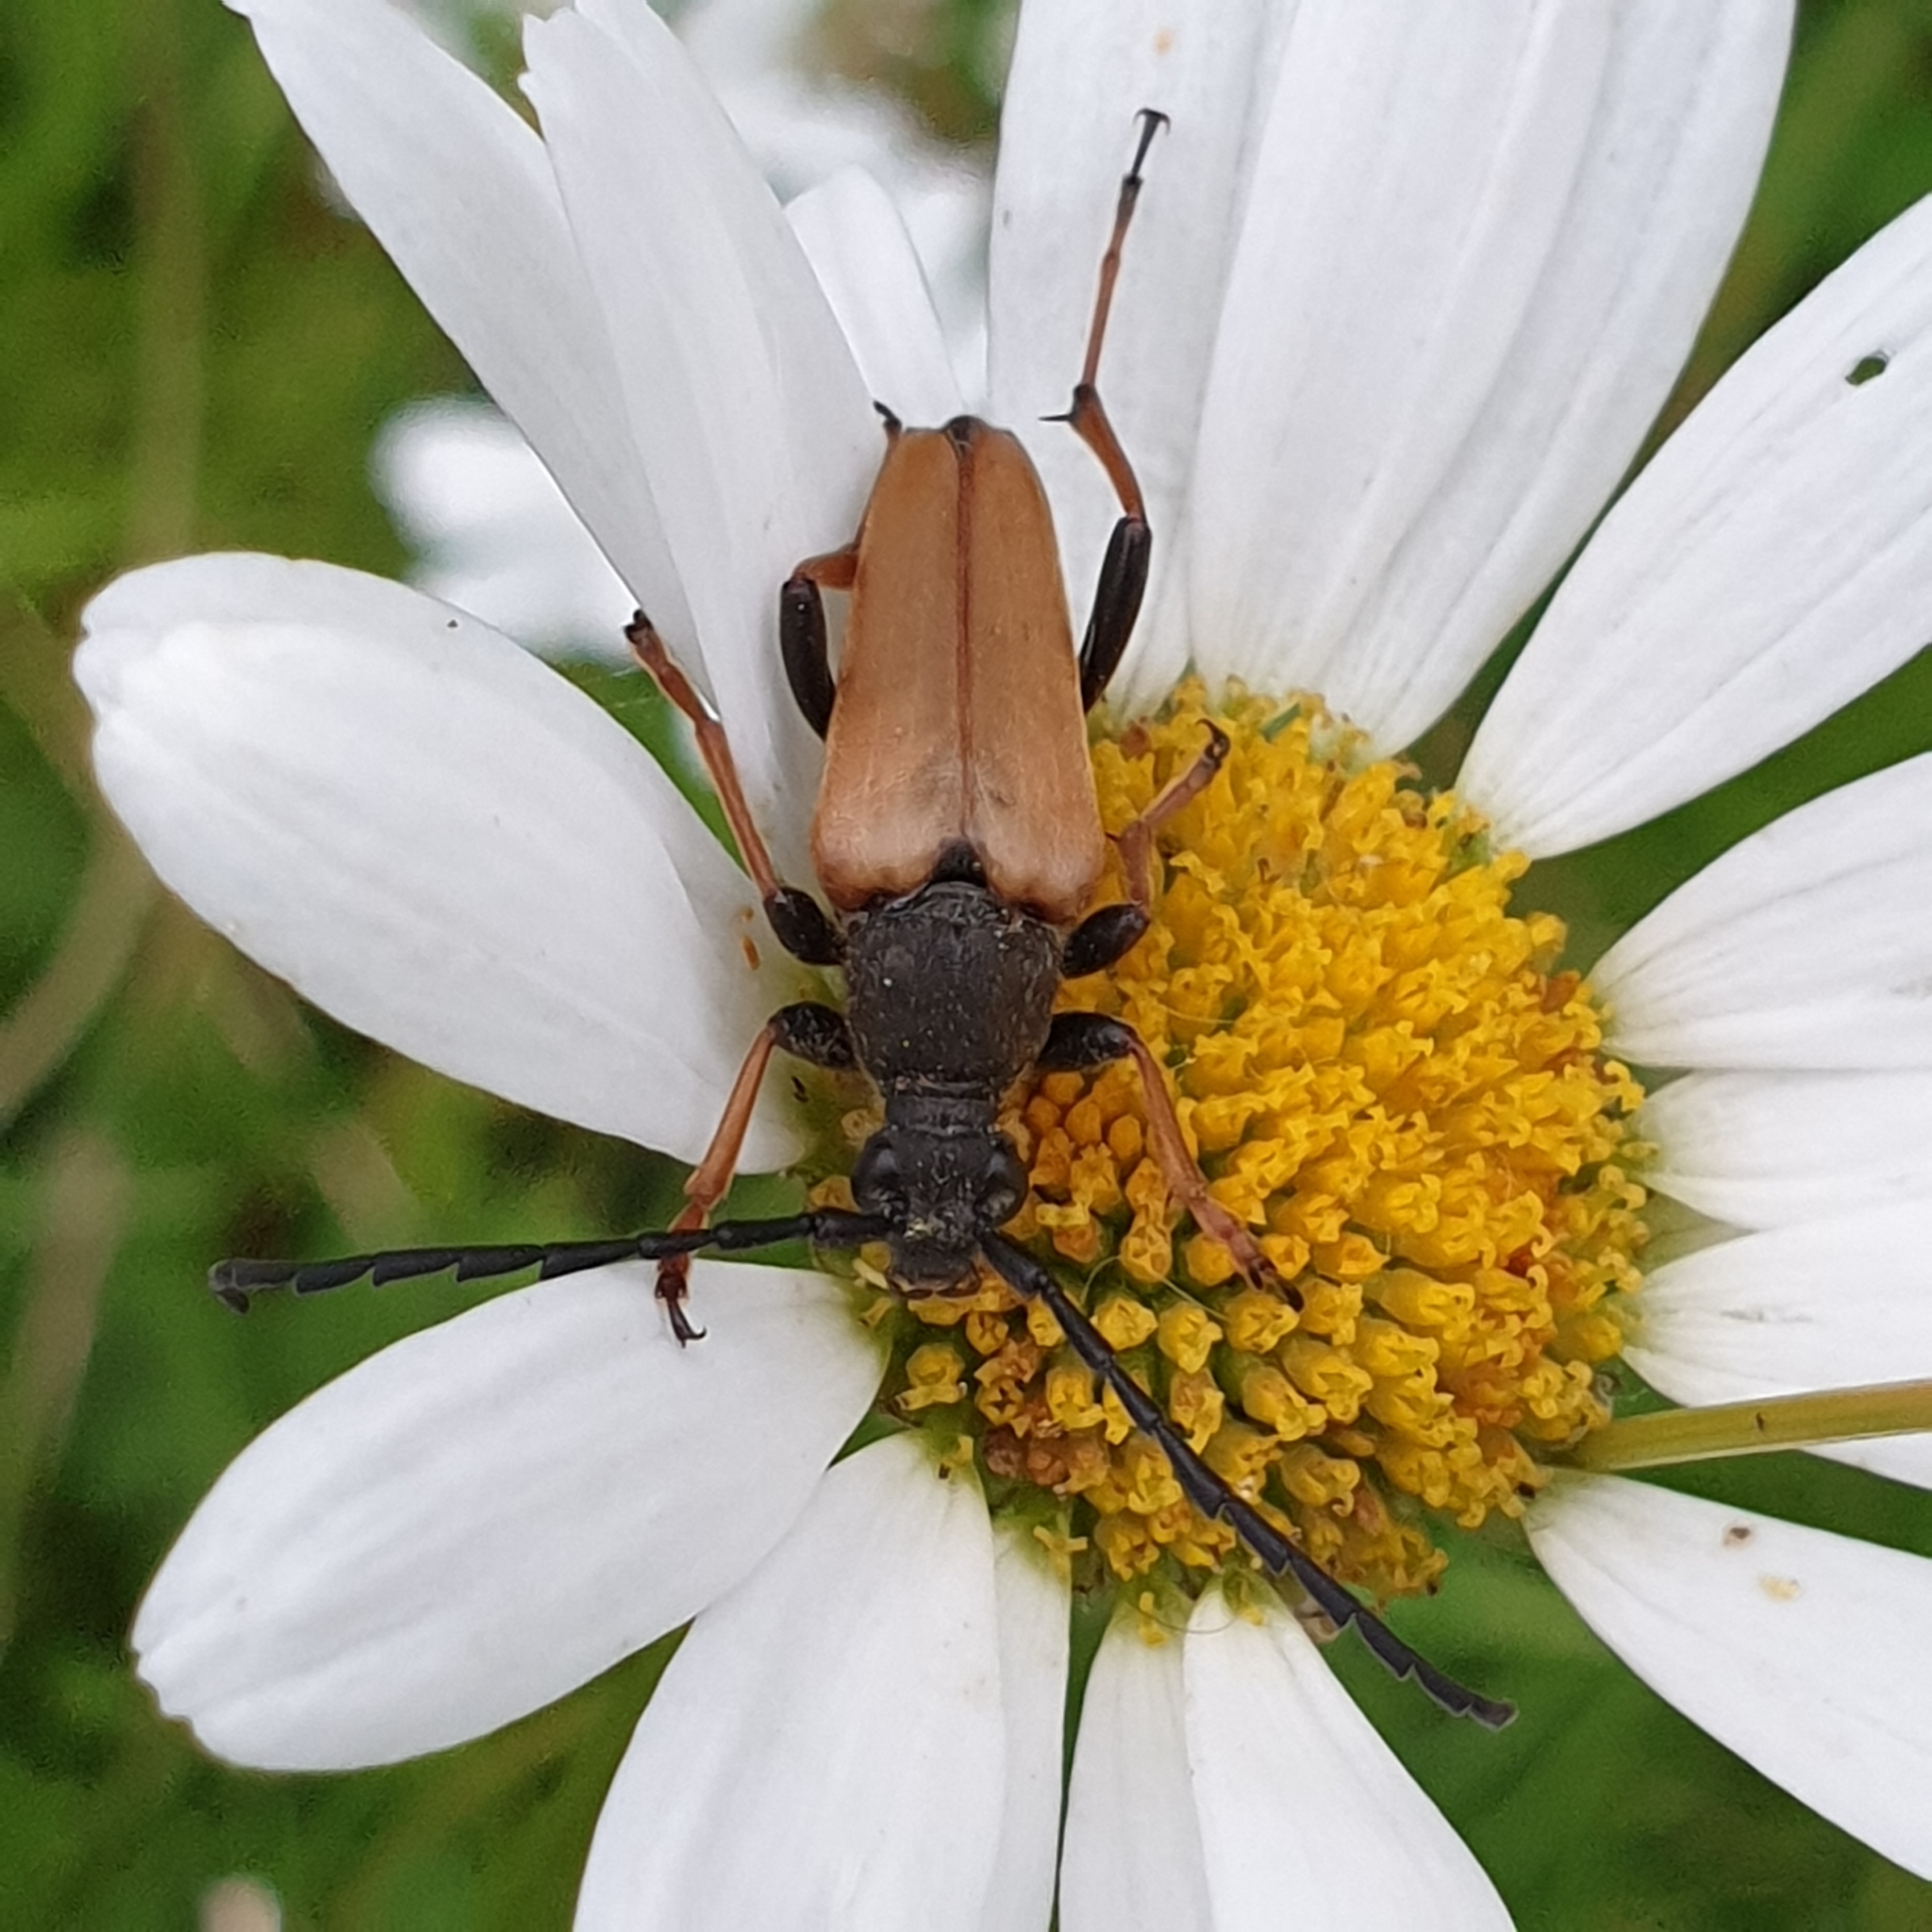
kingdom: Animalia
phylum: Arthropoda
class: Insecta
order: Coleoptera
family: Cerambycidae
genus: Stictoleptura
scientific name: Stictoleptura rubra
